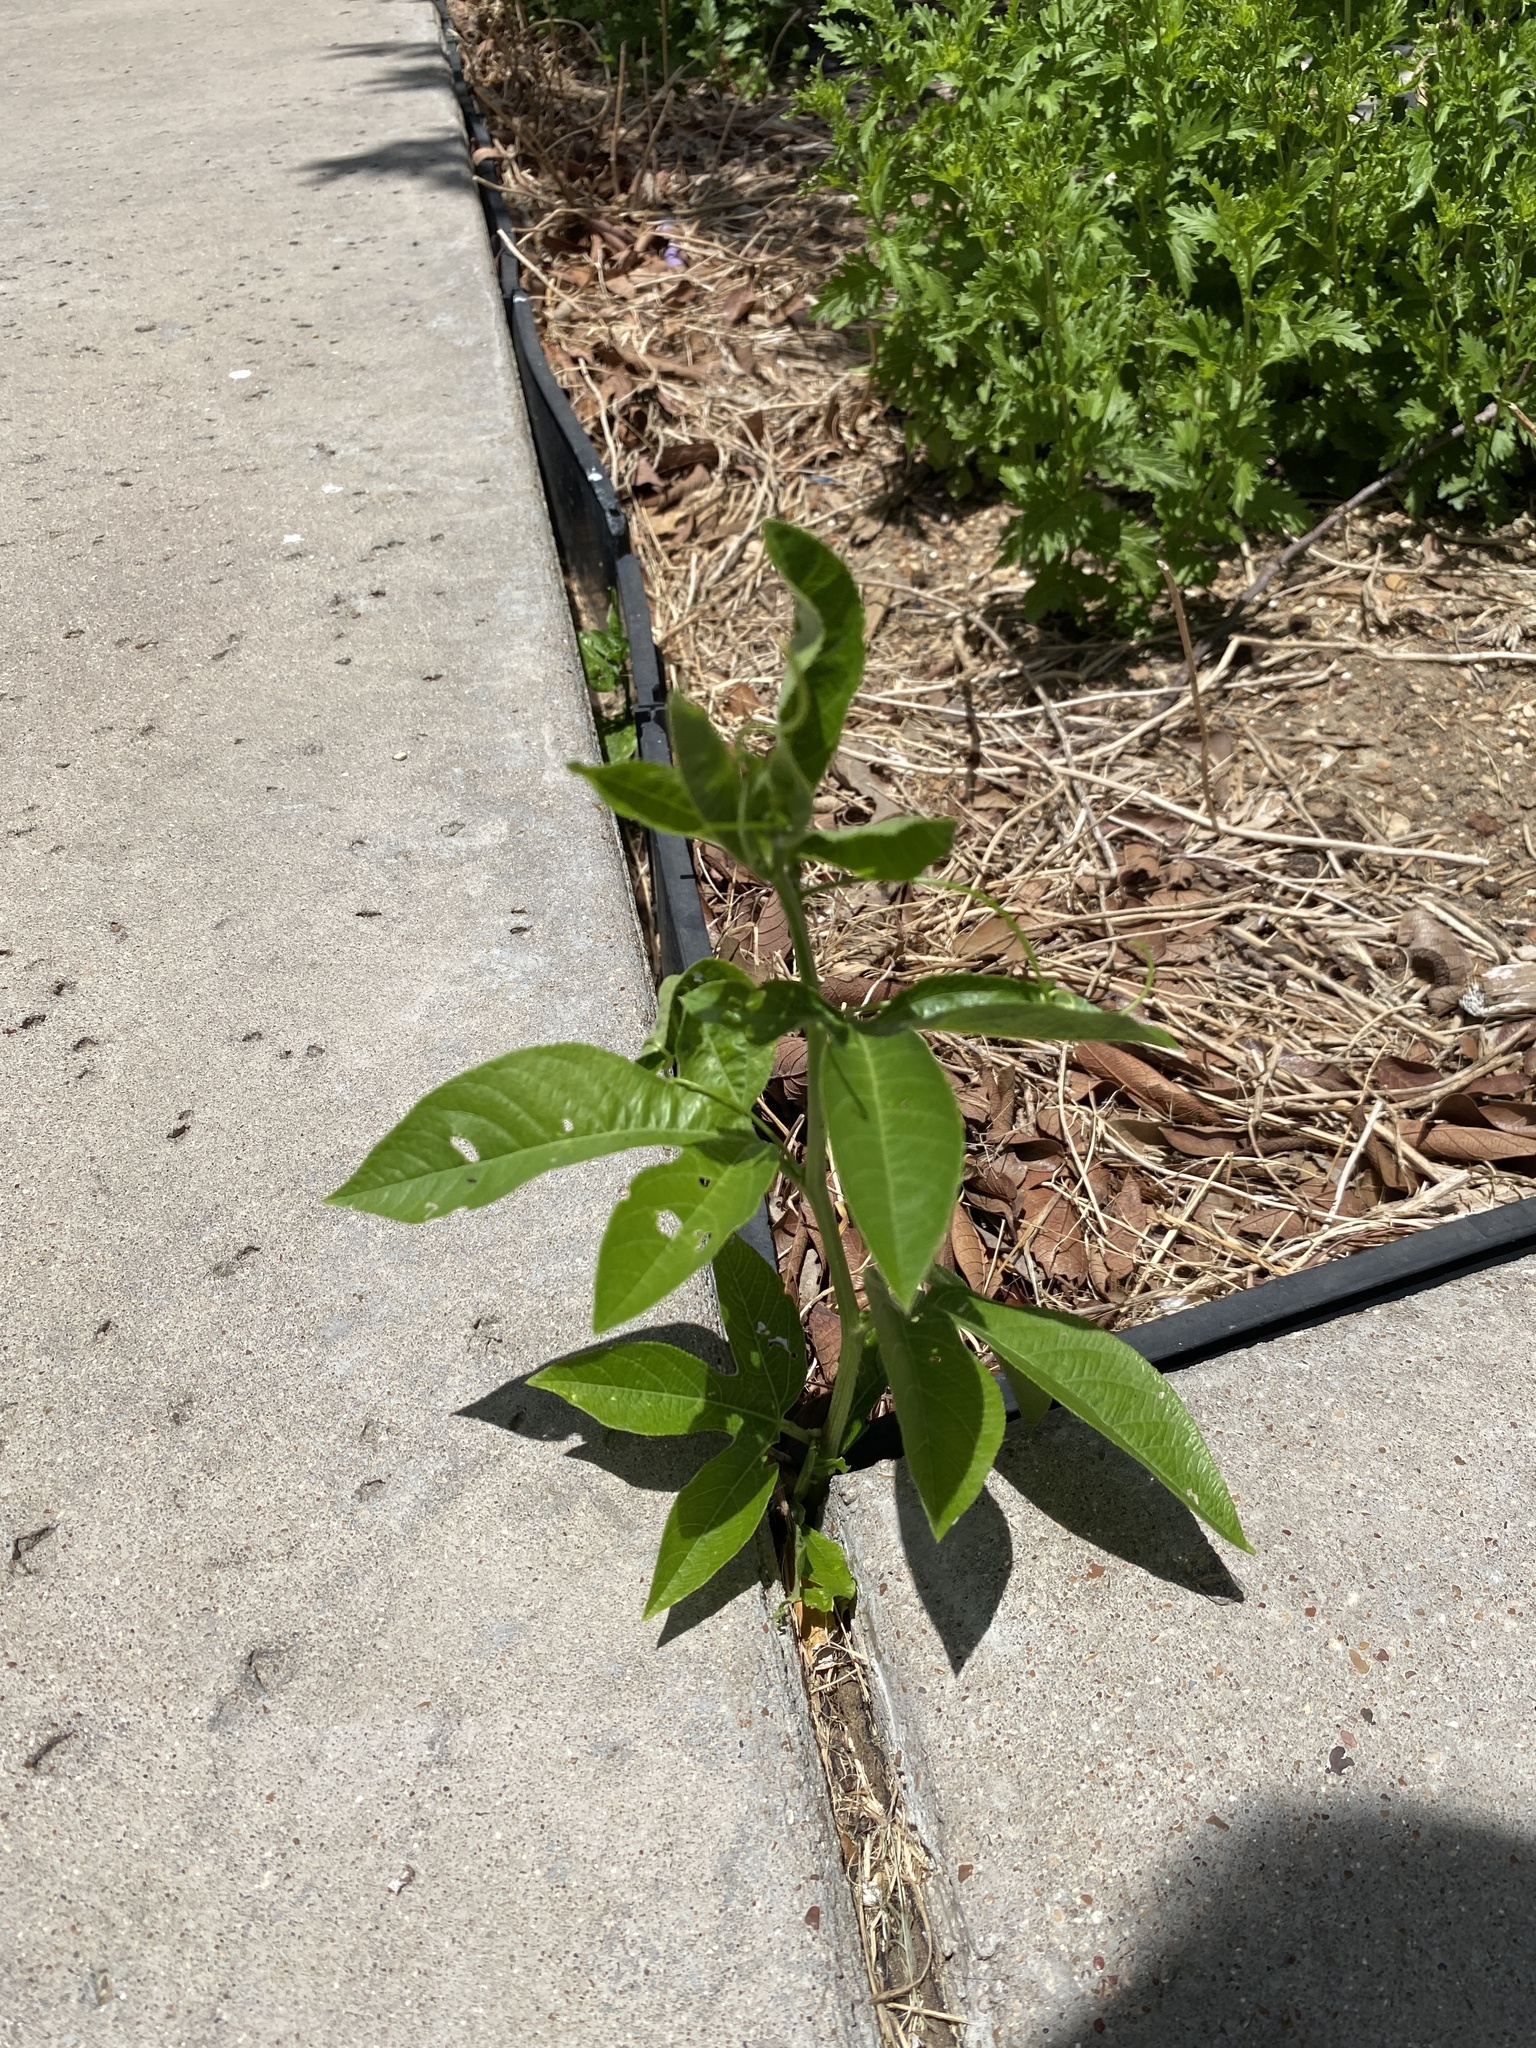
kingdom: Plantae
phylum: Tracheophyta
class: Magnoliopsida
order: Malpighiales
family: Passifloraceae
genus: Passiflora
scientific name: Passiflora incarnata
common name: Apricot-vine
